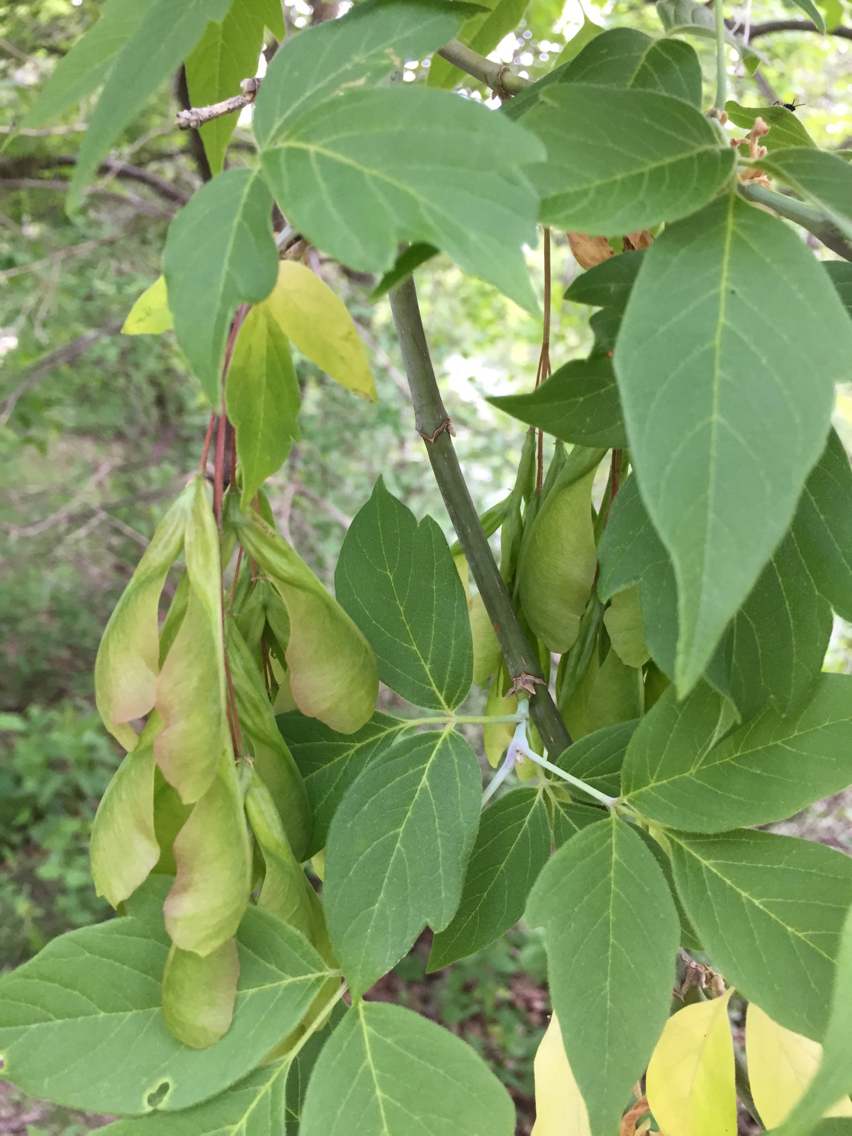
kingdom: Plantae
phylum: Tracheophyta
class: Magnoliopsida
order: Sapindales
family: Sapindaceae
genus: Acer
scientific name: Acer negundo
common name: Ashleaf maple
